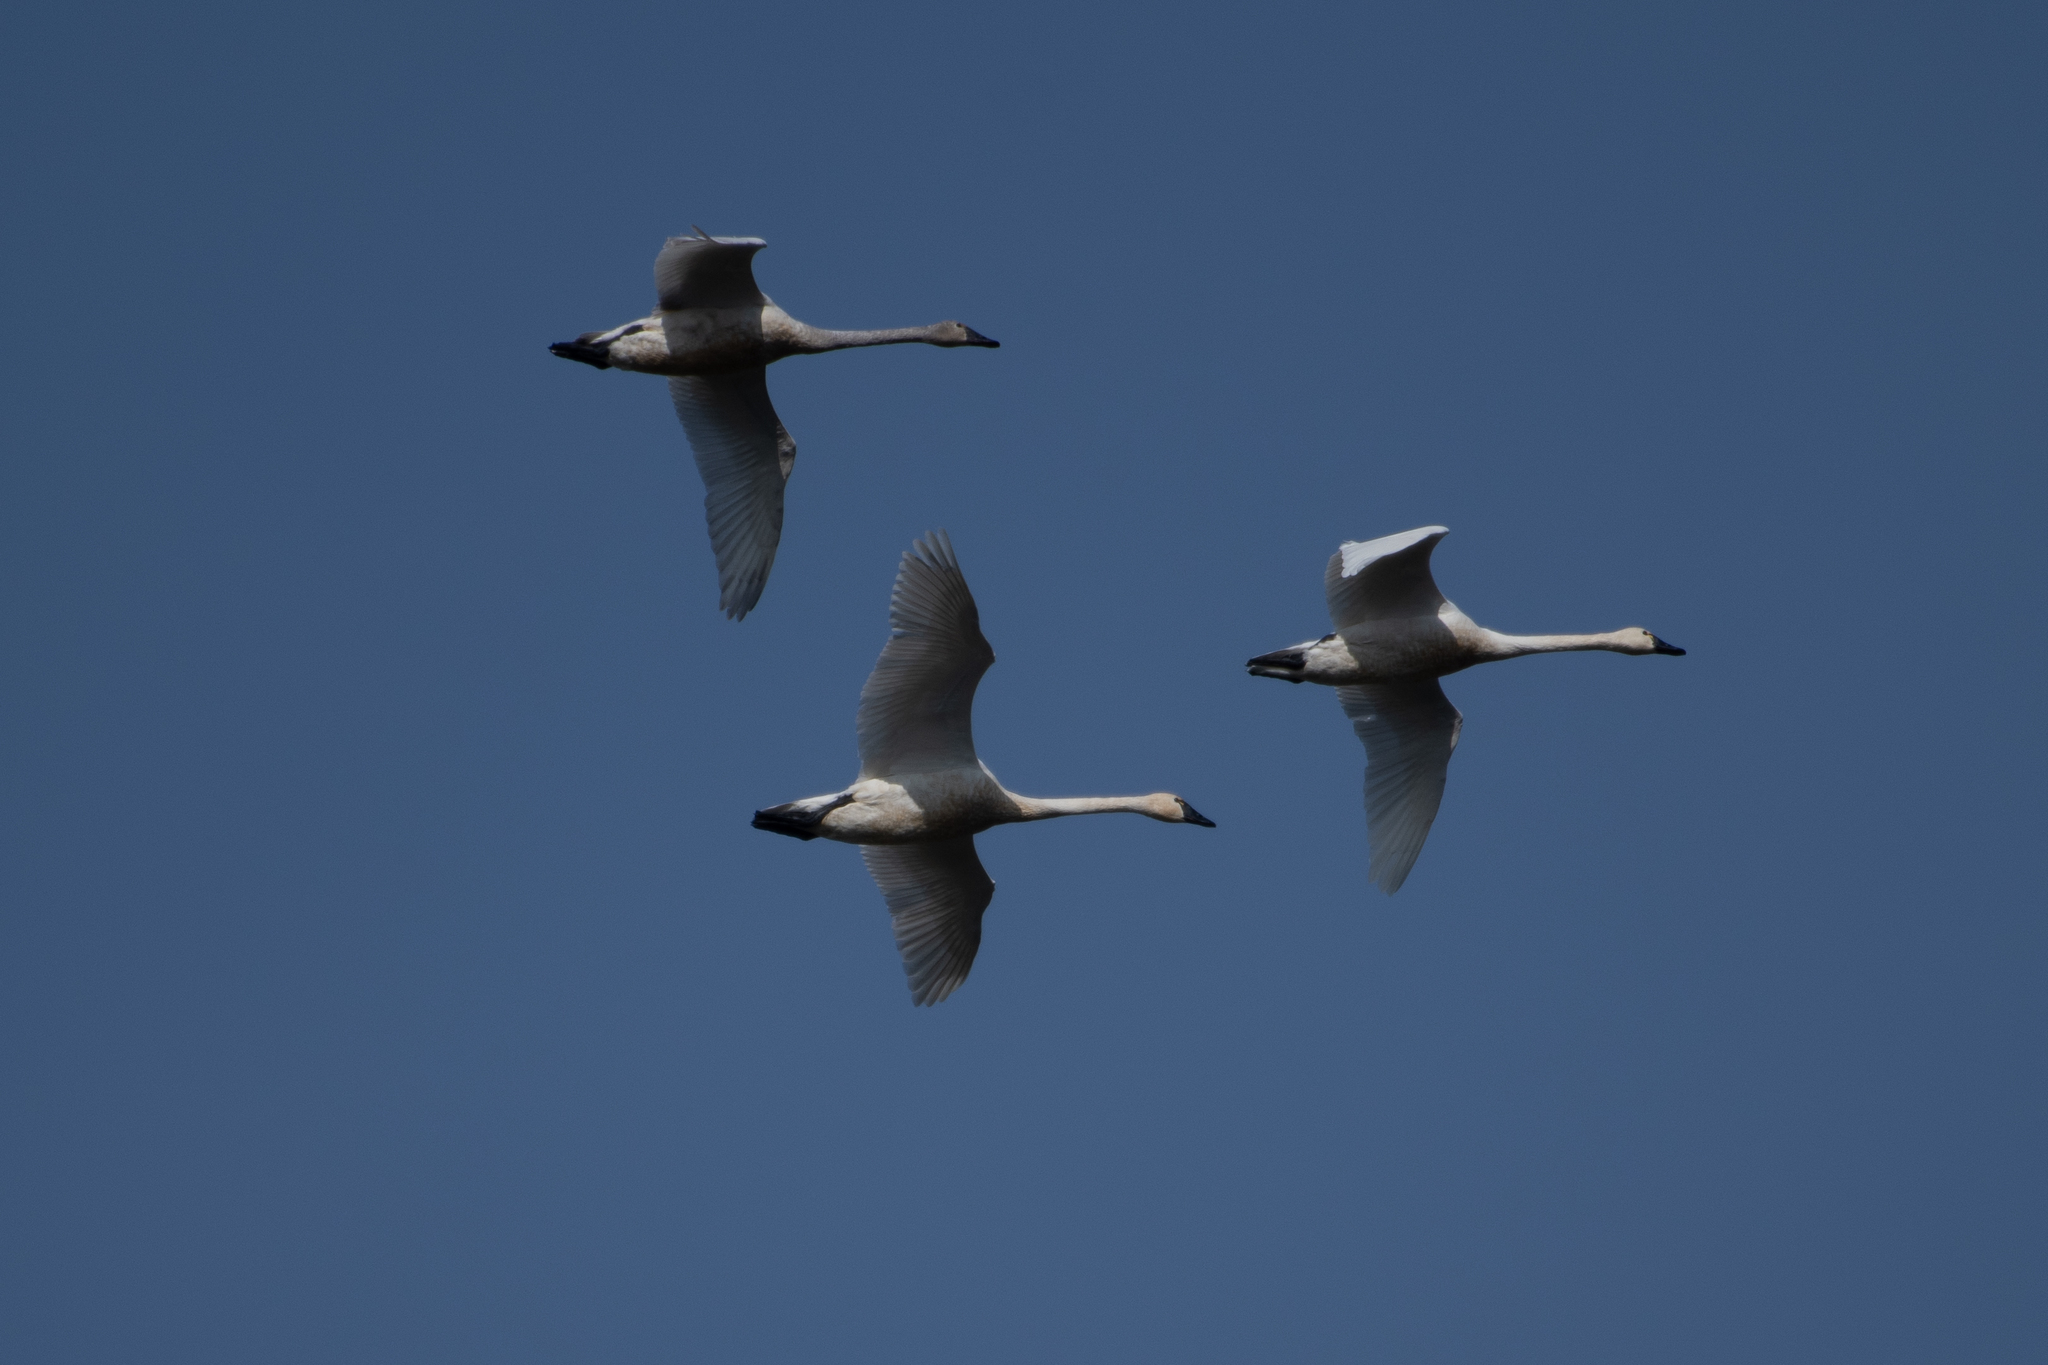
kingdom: Animalia
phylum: Chordata
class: Aves
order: Anseriformes
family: Anatidae
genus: Cygnus
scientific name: Cygnus columbianus
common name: Tundra swan
